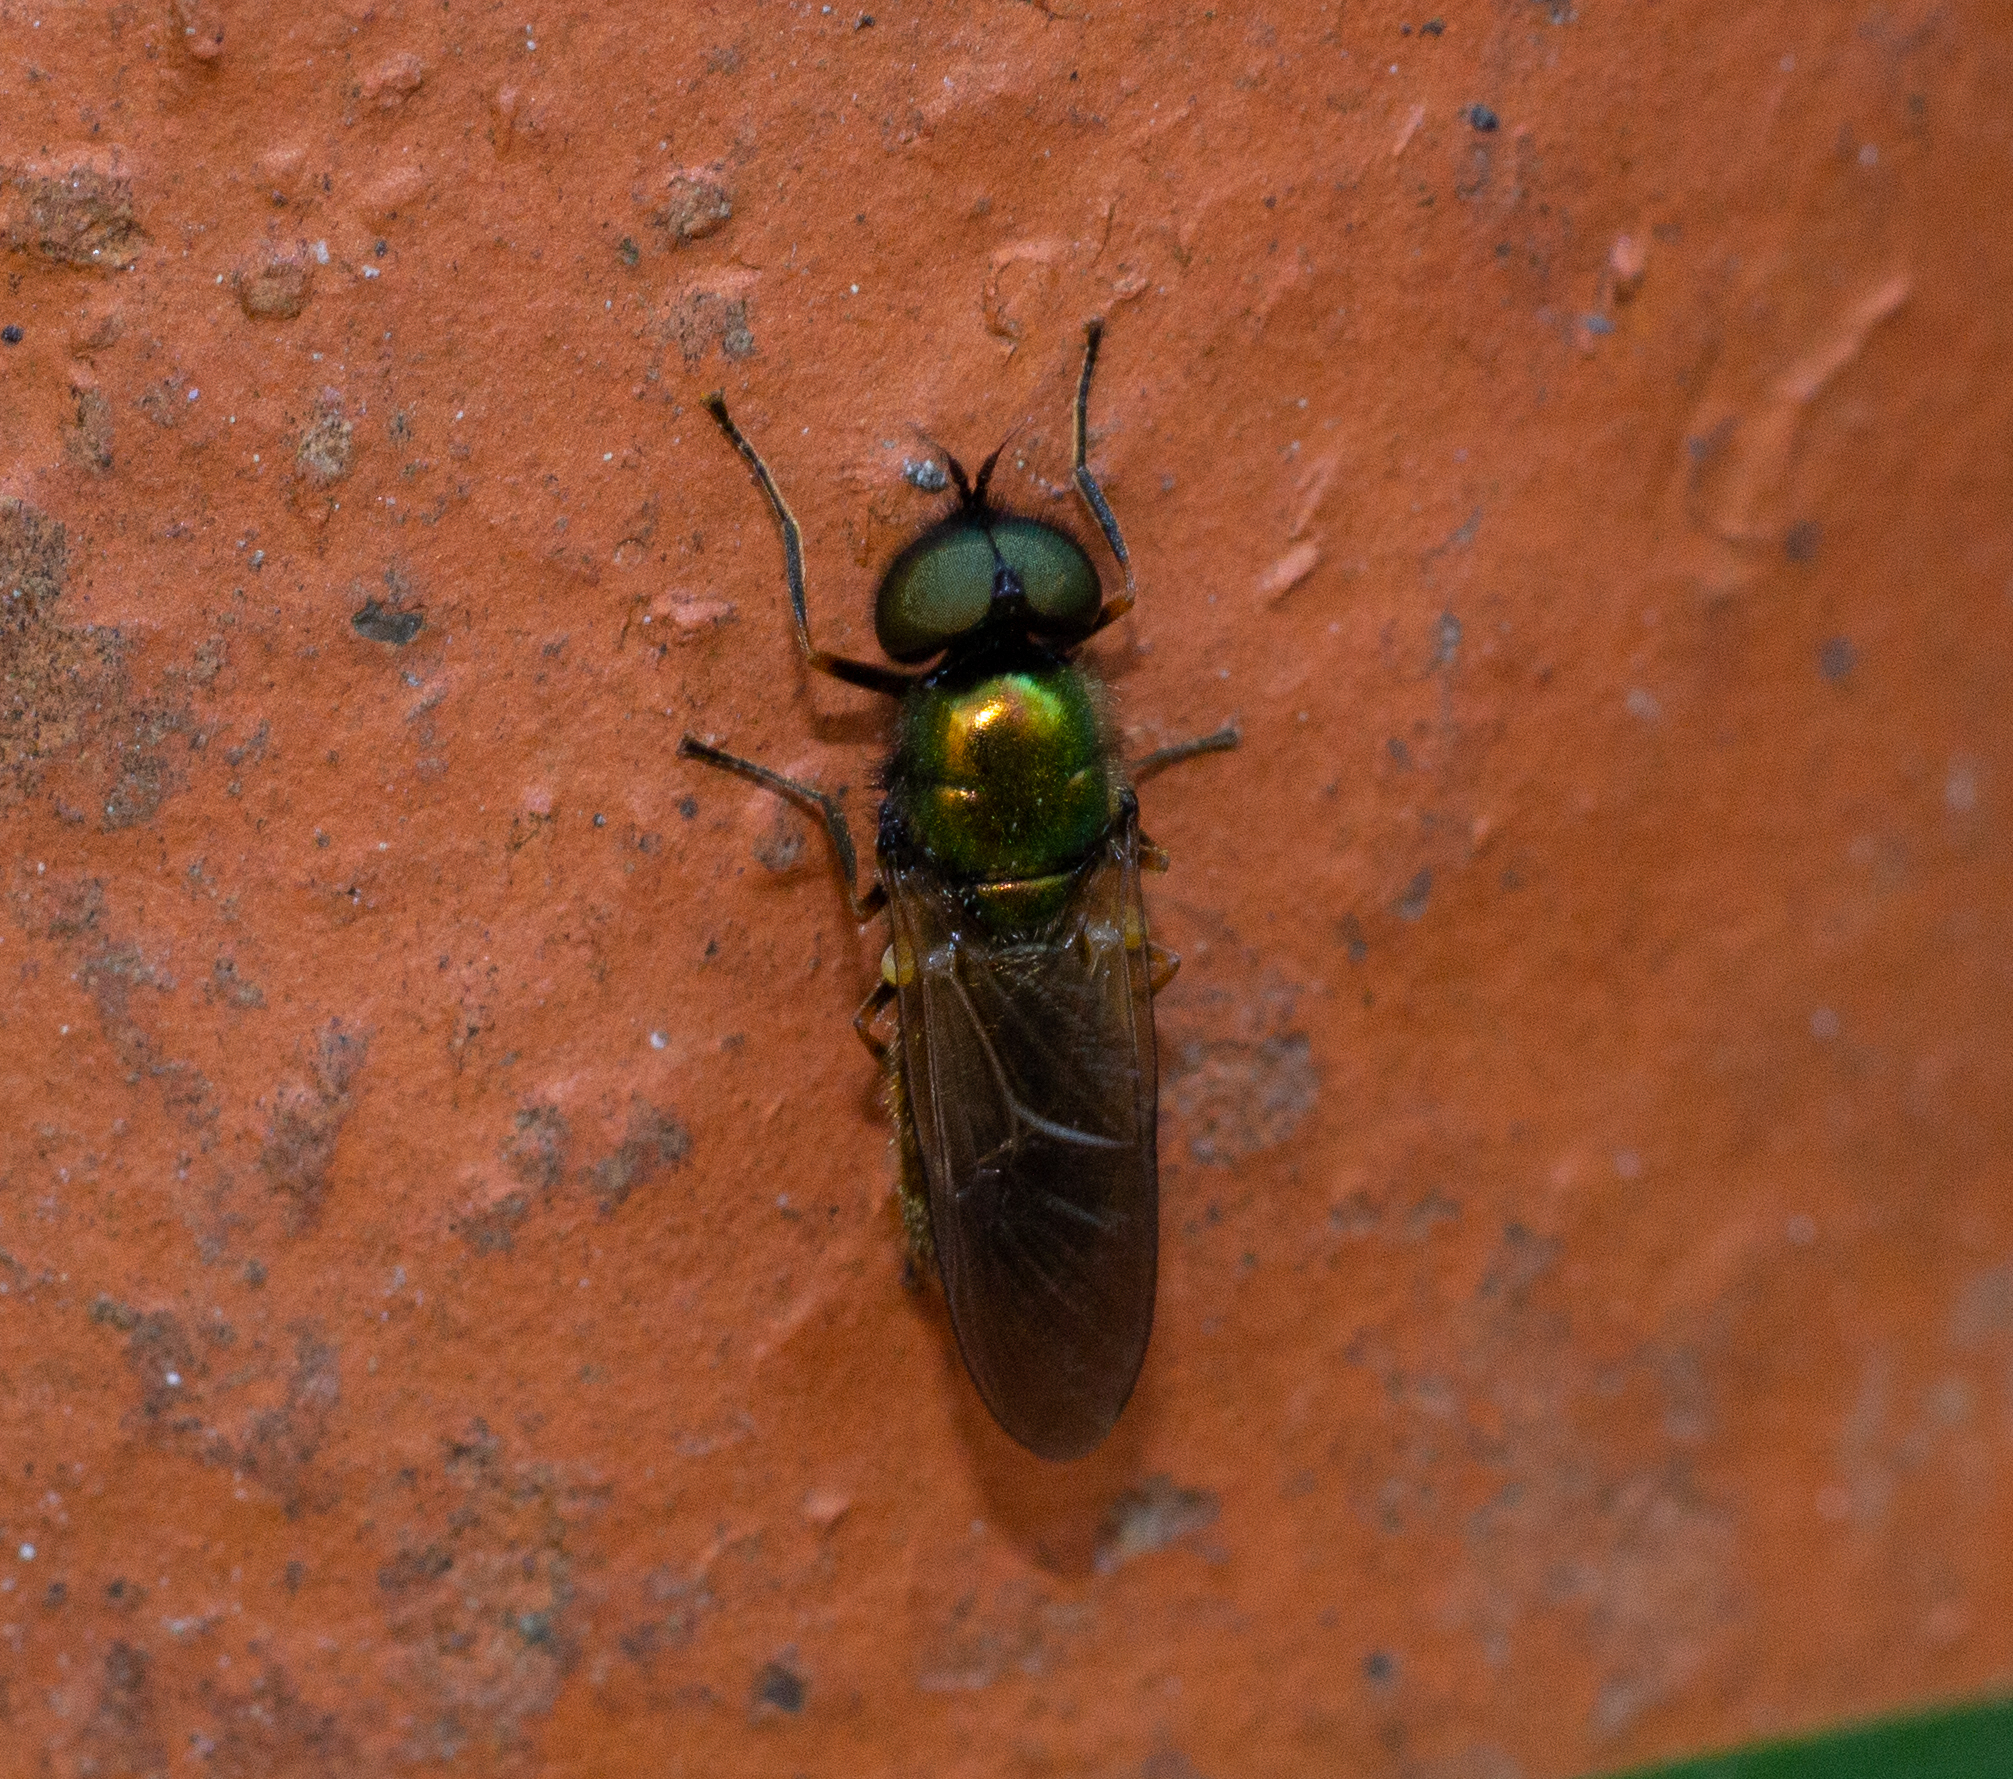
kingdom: Animalia
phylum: Arthropoda
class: Insecta
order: Diptera
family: Stratiomyidae
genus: Chloromyia
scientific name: Chloromyia formosa
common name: Soldier fly
